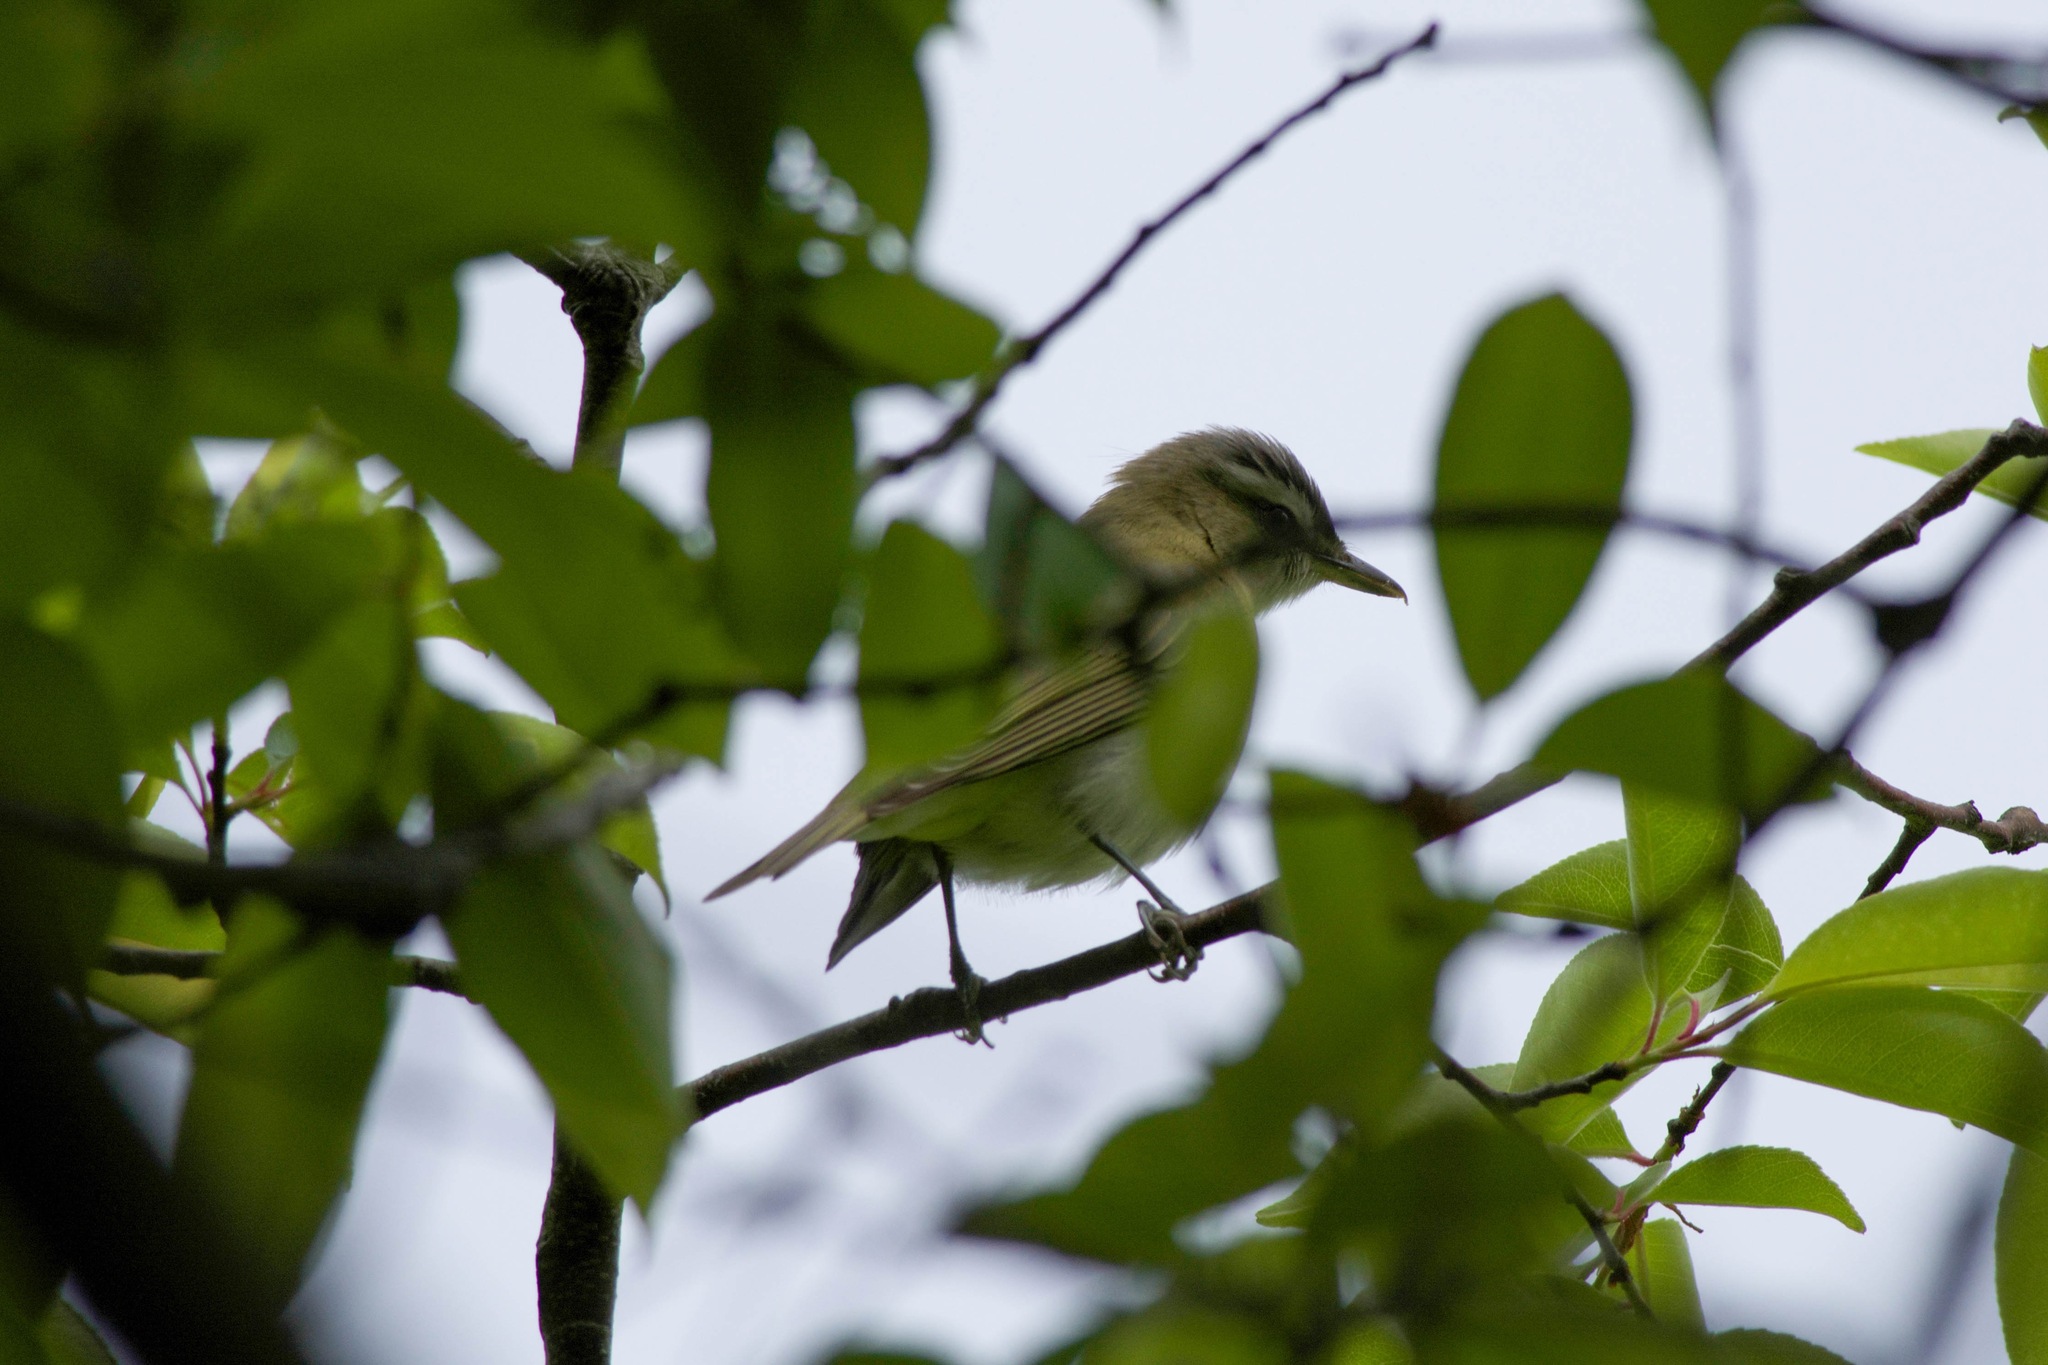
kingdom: Animalia
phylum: Chordata
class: Aves
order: Passeriformes
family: Vireonidae
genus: Vireo
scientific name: Vireo olivaceus
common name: Red-eyed vireo
